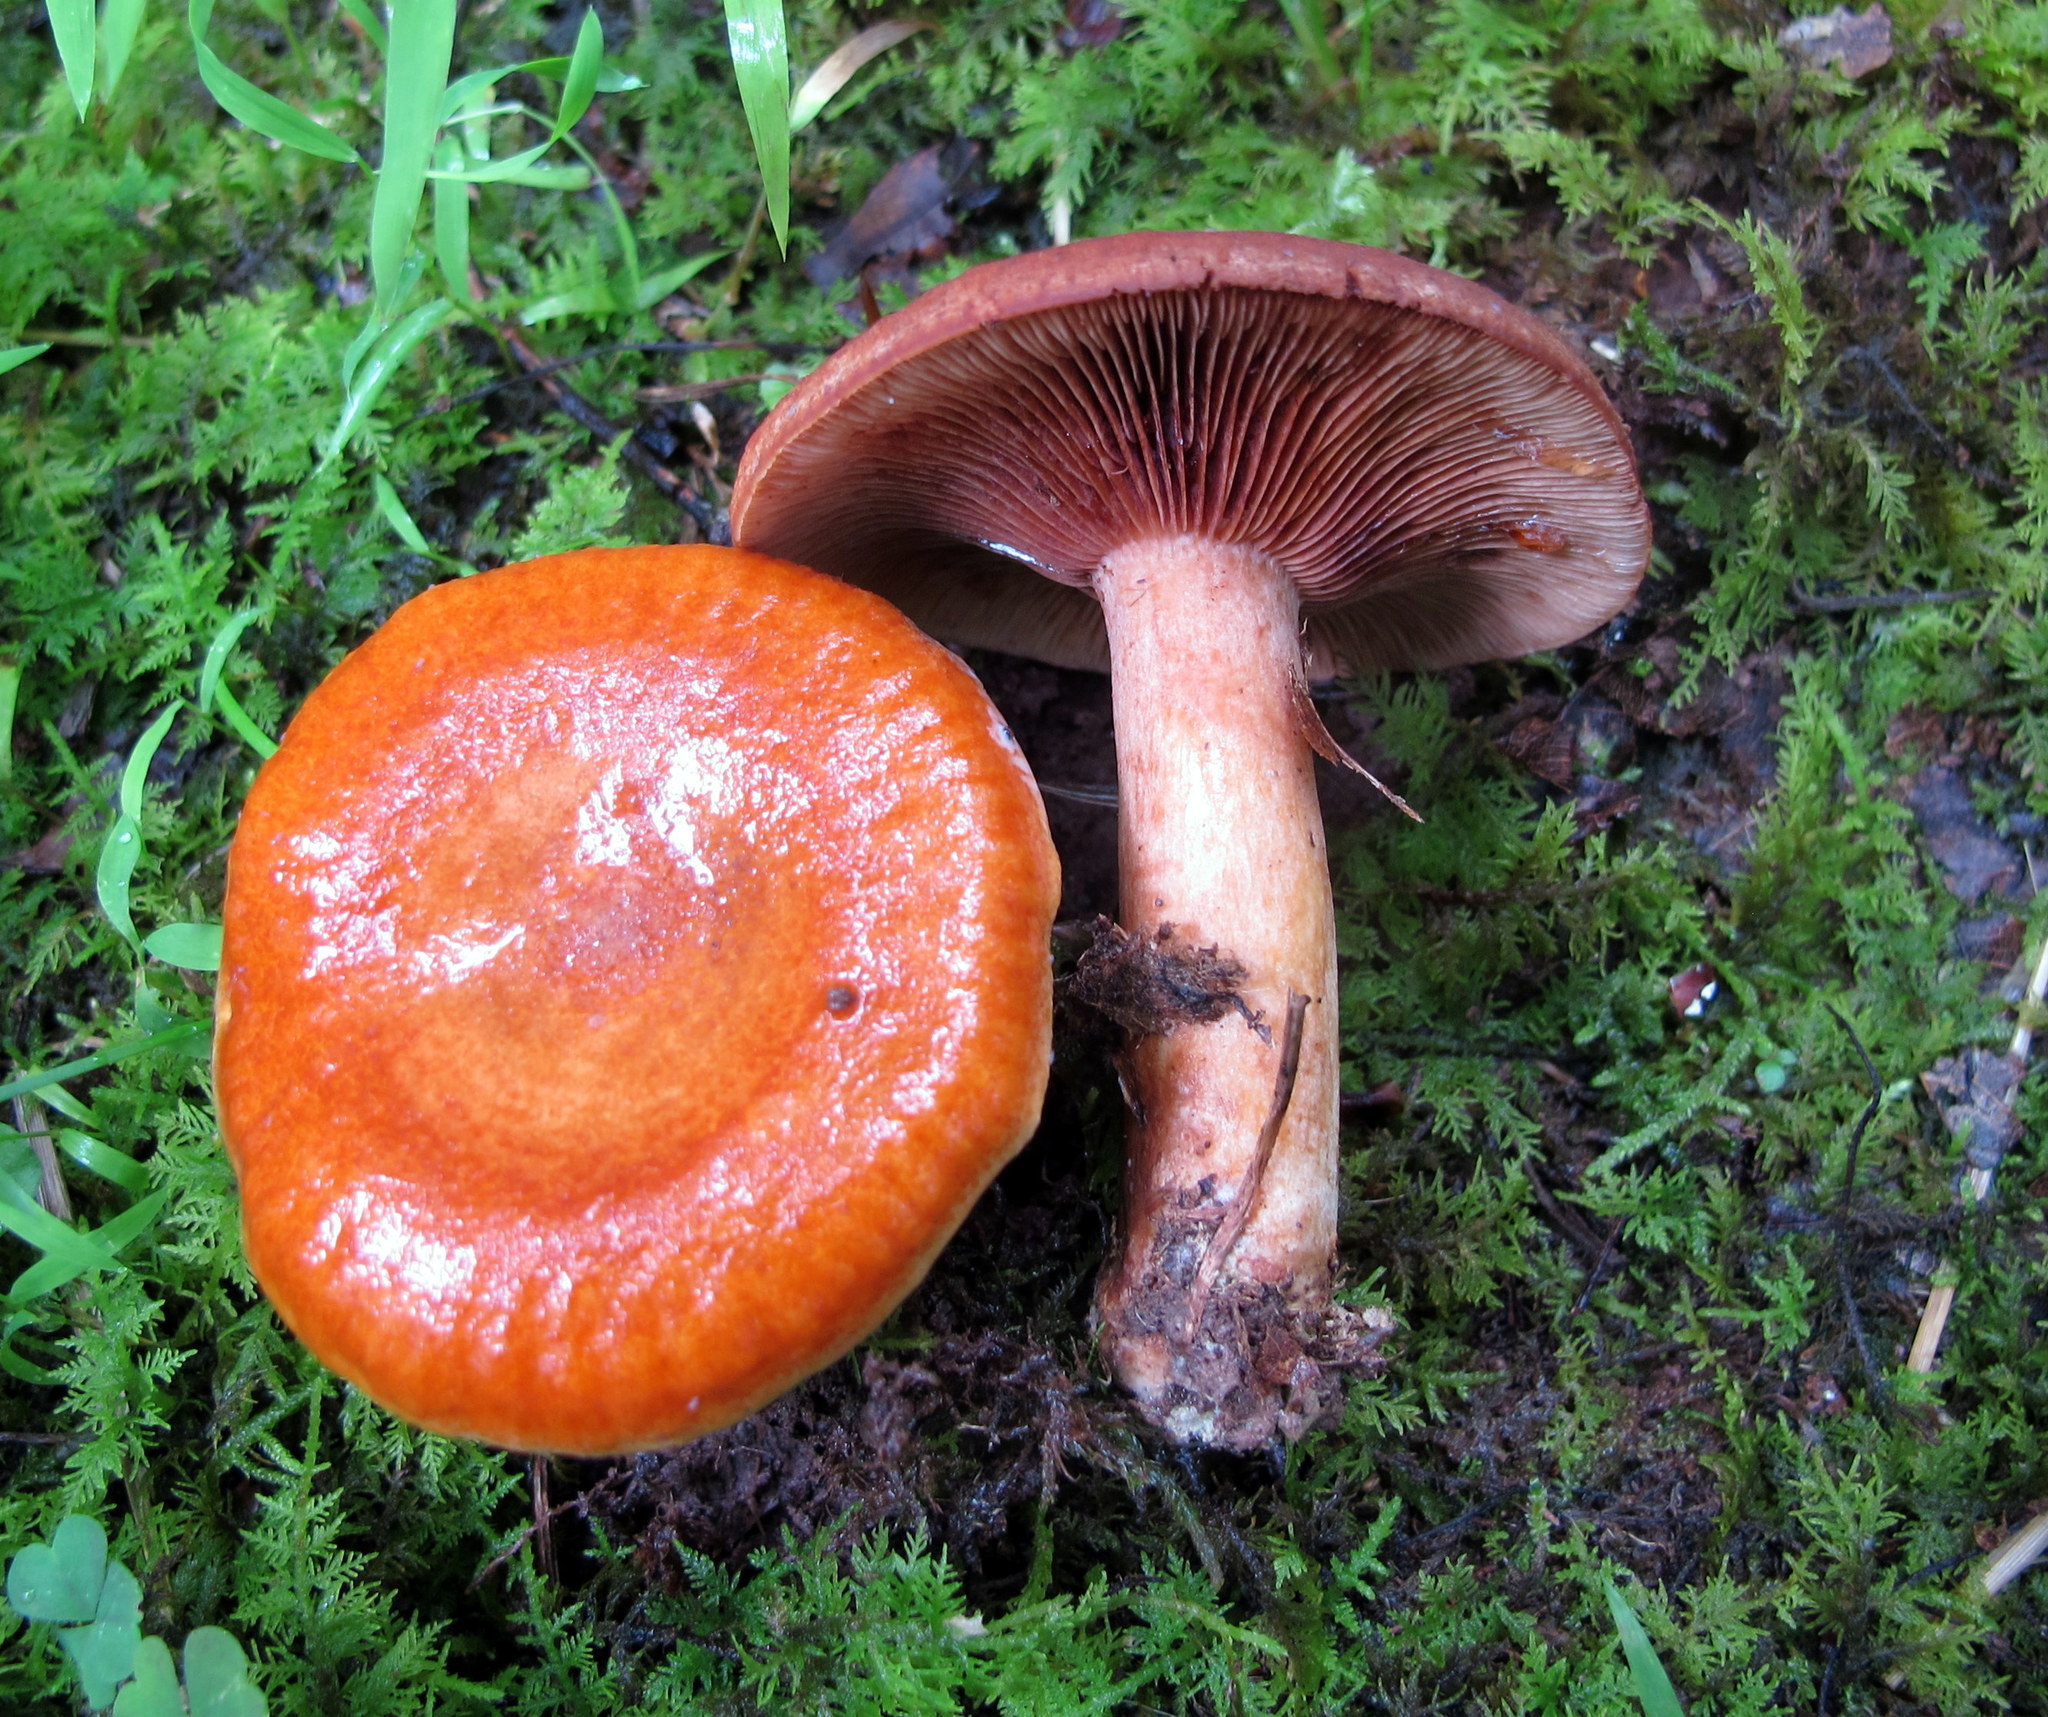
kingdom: Fungi
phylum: Basidiomycota
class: Agaricomycetes
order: Russulales
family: Russulaceae
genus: Lactarius
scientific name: Lactarius peckii
